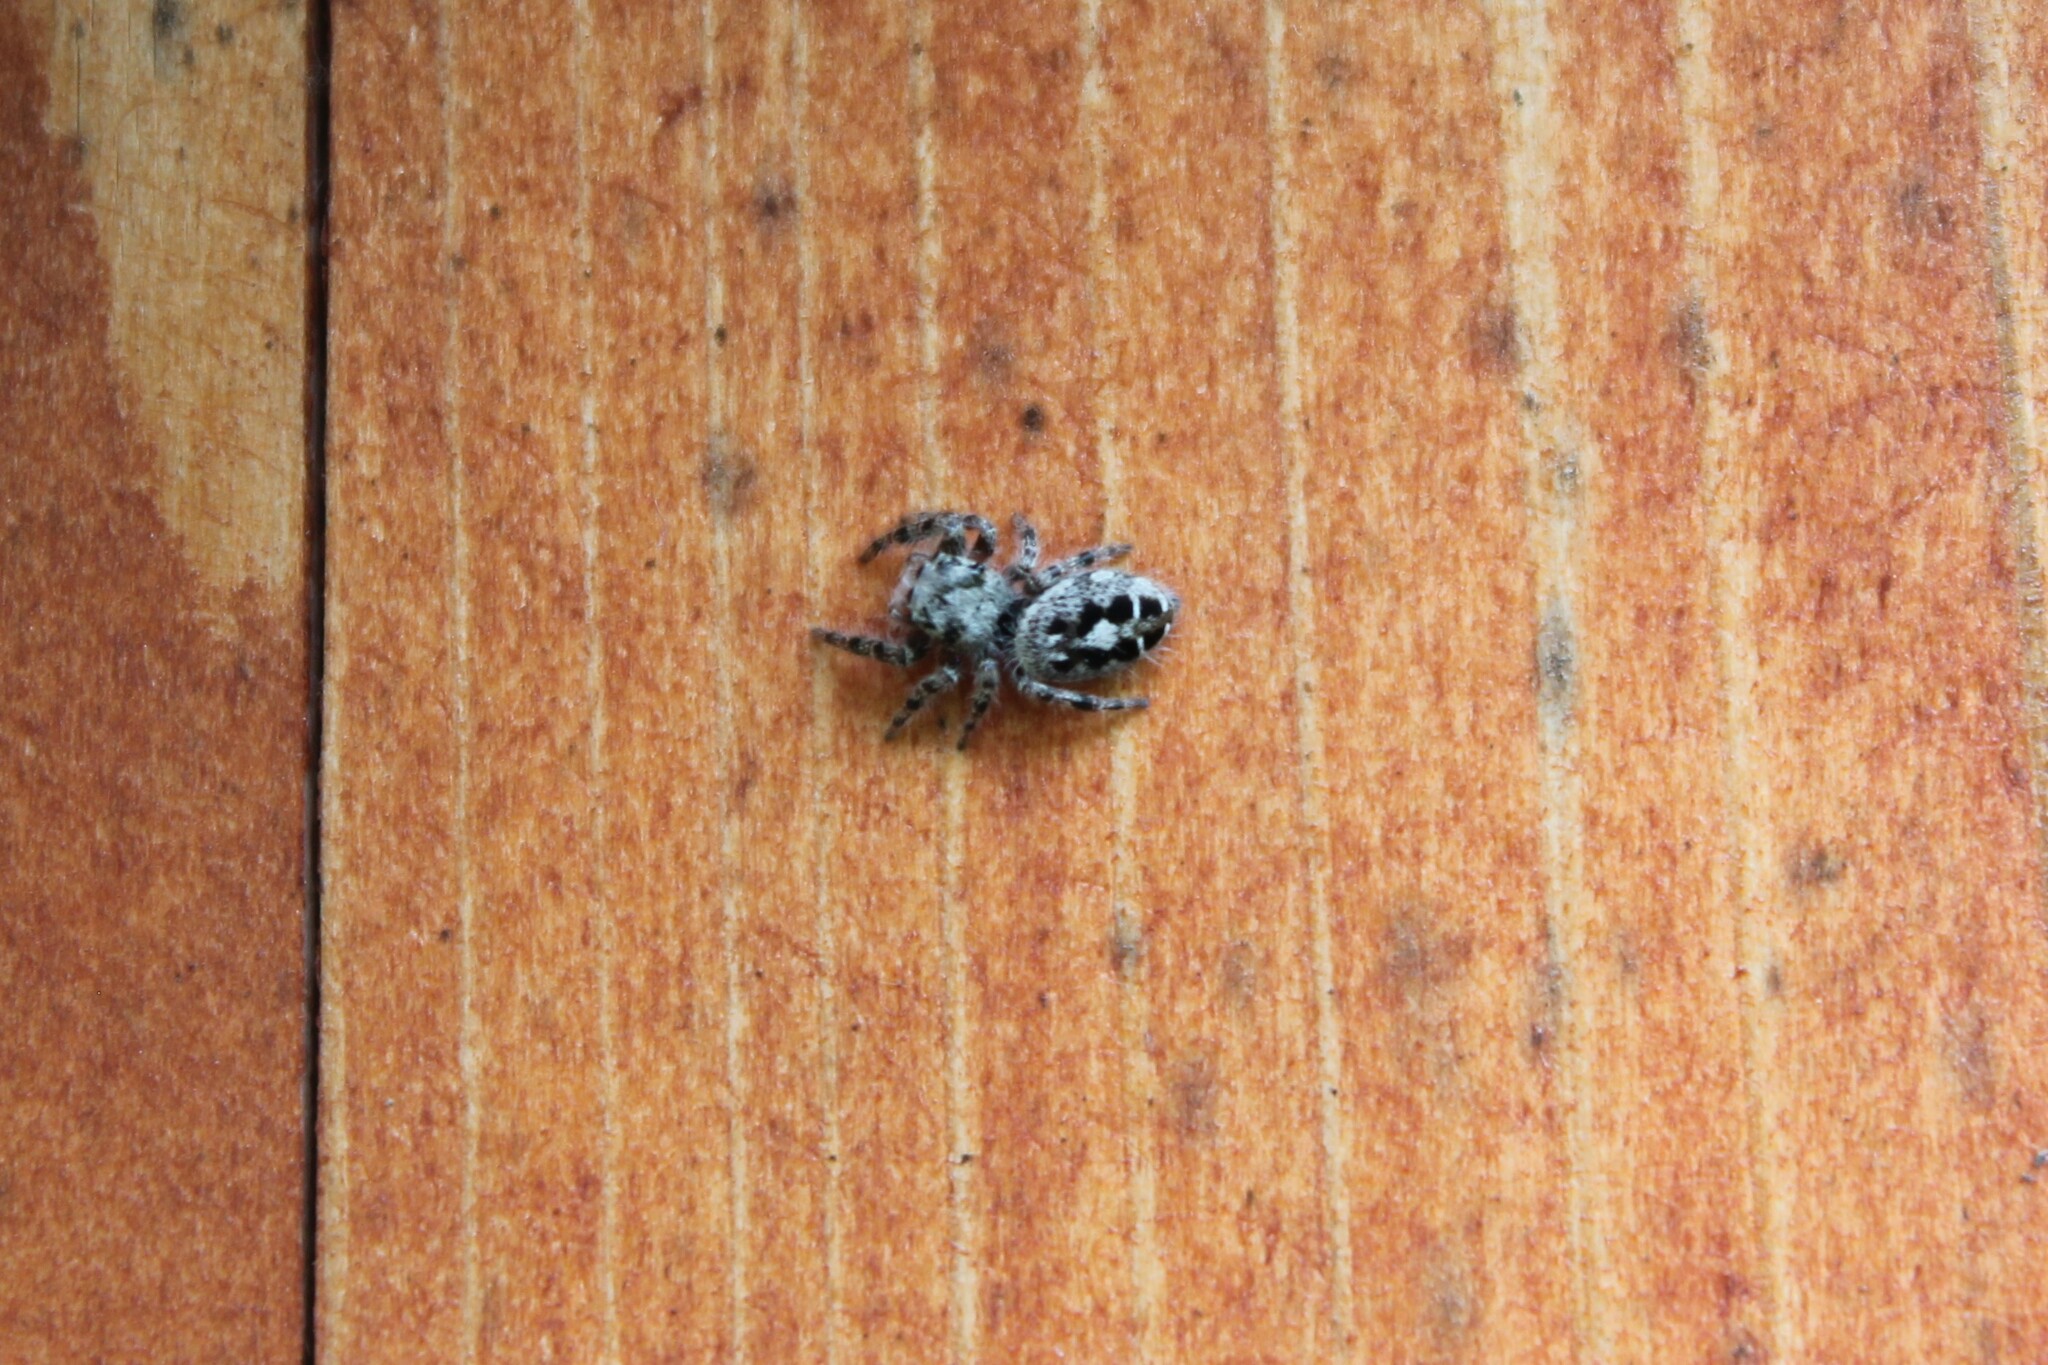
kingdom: Animalia
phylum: Arthropoda
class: Arachnida
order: Araneae
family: Salticidae
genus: Phidippus
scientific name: Phidippus putnami
